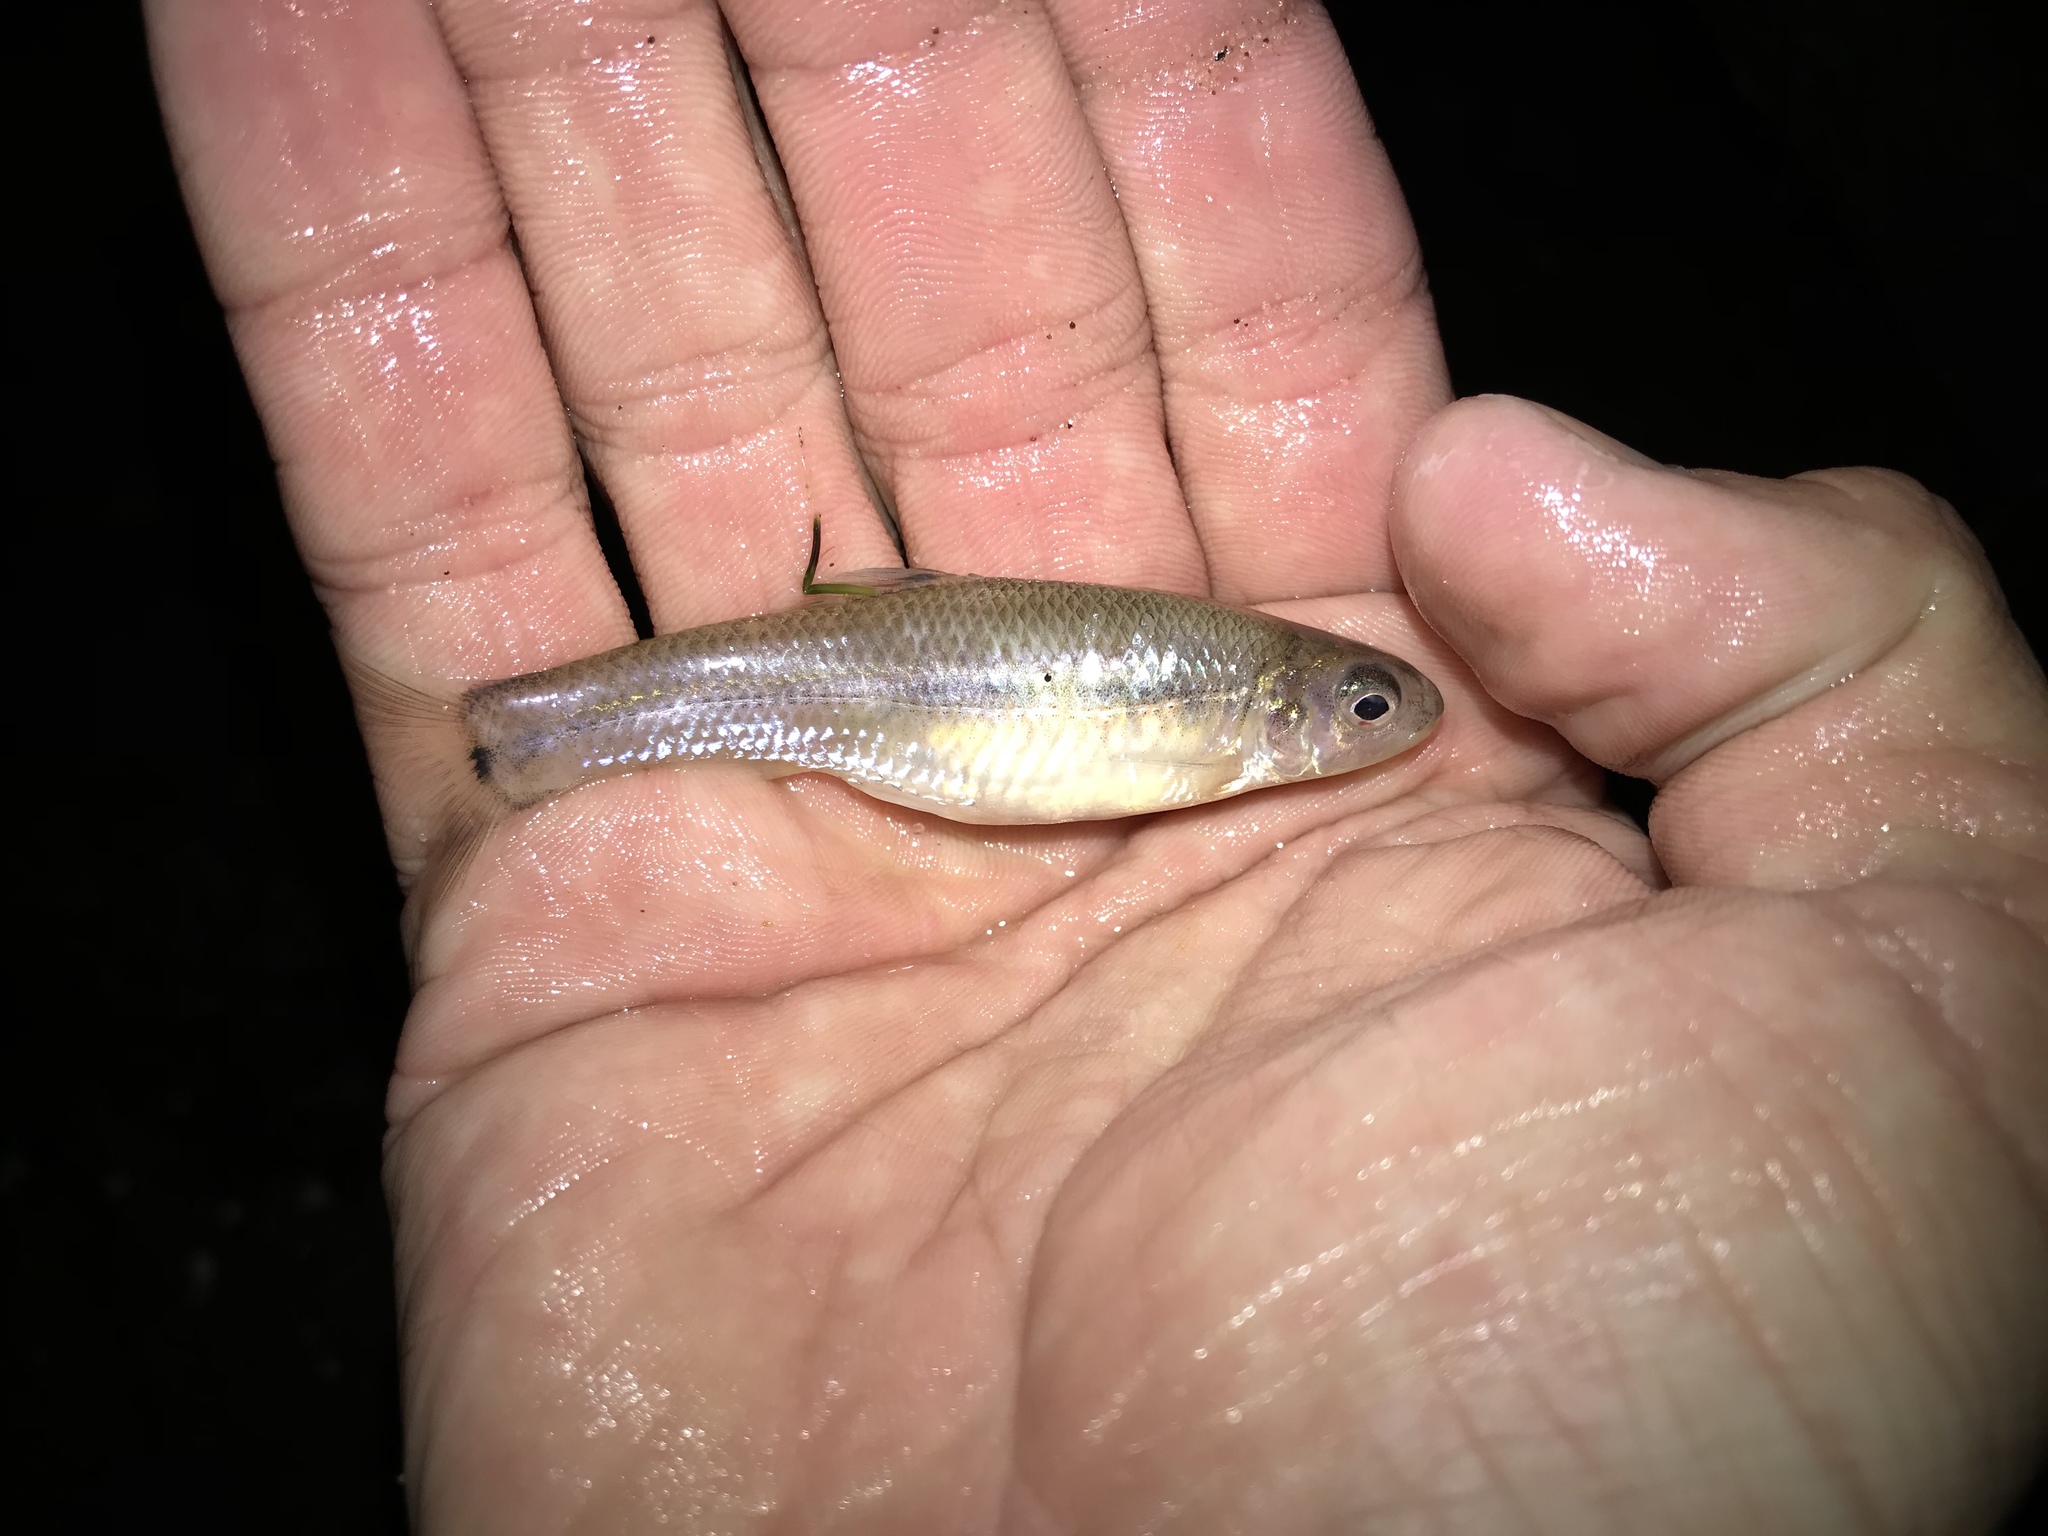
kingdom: Animalia
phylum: Chordata
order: Cypriniformes
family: Cyprinidae
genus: Pimephales
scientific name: Pimephales vigilax
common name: Bullhead minnow
